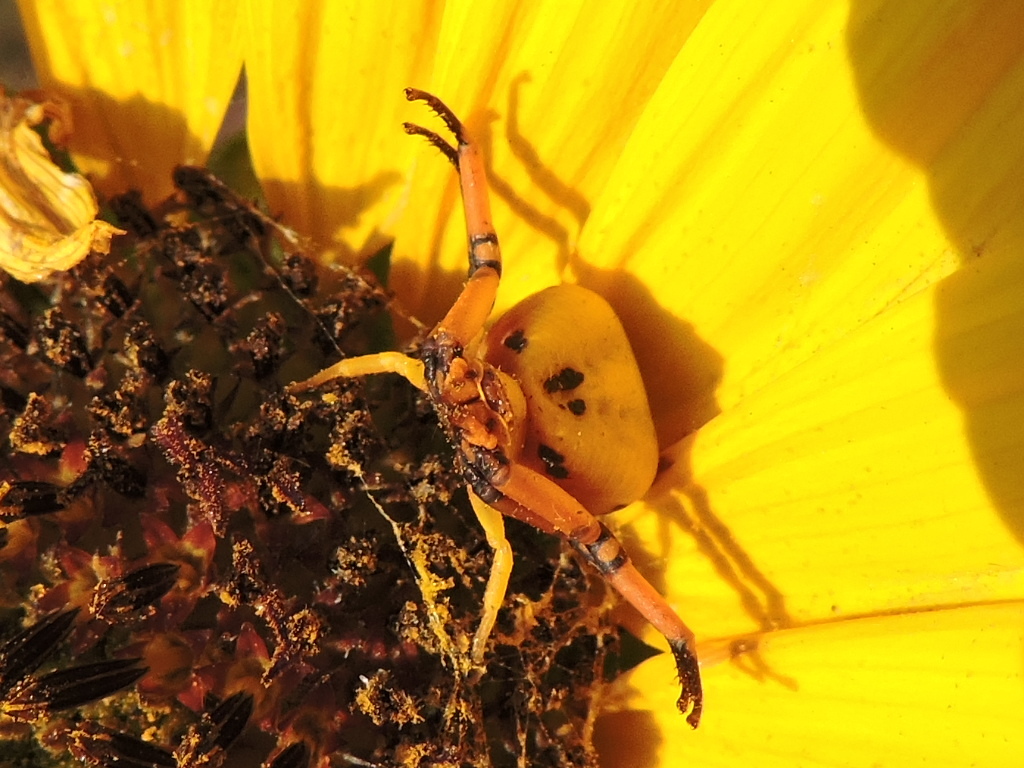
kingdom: Animalia
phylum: Arthropoda
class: Arachnida
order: Araneae
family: Thomisidae
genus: Misumenoides
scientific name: Misumenoides formosipes
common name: White-banded crab spider
